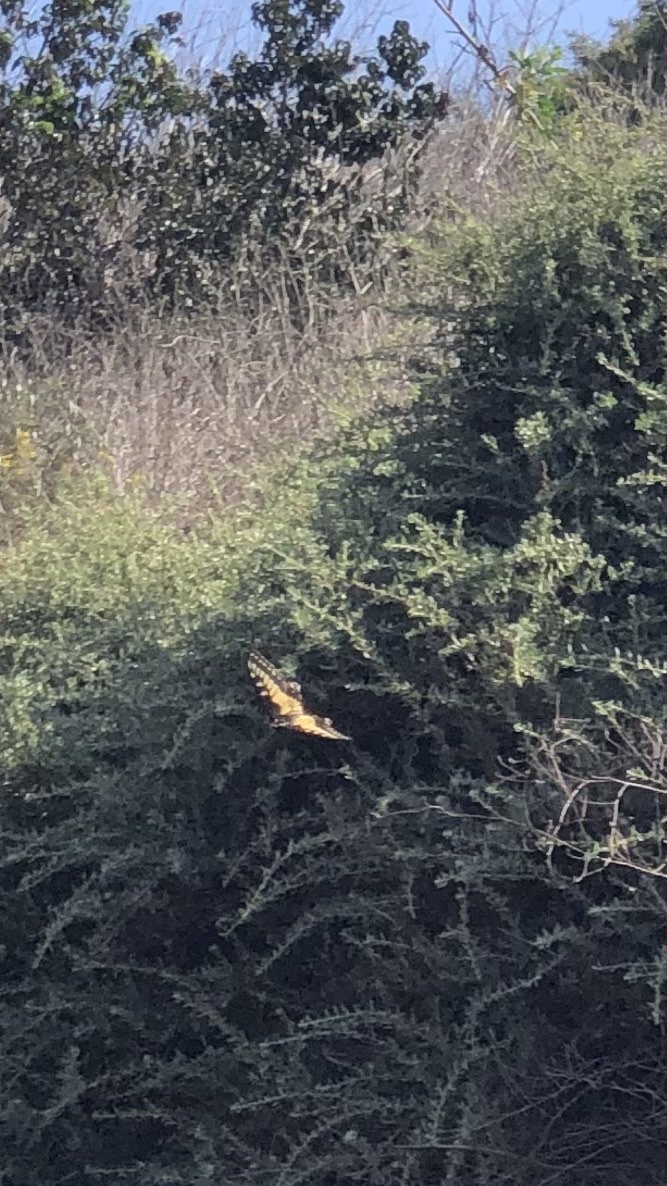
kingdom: Animalia
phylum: Arthropoda
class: Insecta
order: Lepidoptera
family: Papilionidae
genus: Papilio
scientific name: Papilio zelicaon
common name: Anise swallowtail
